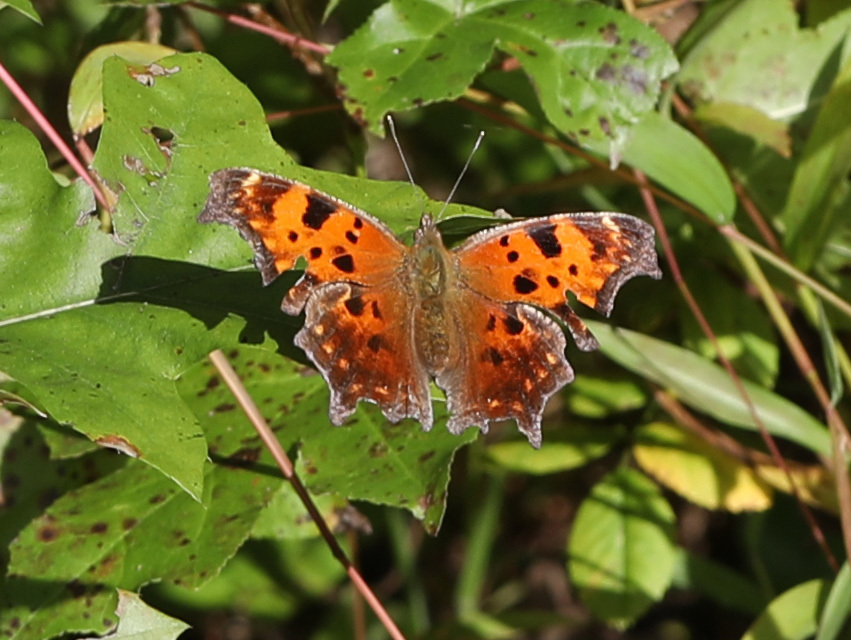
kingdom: Animalia
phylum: Arthropoda
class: Insecta
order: Lepidoptera
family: Nymphalidae
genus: Polygonia
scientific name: Polygonia comma
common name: Eastern comma
